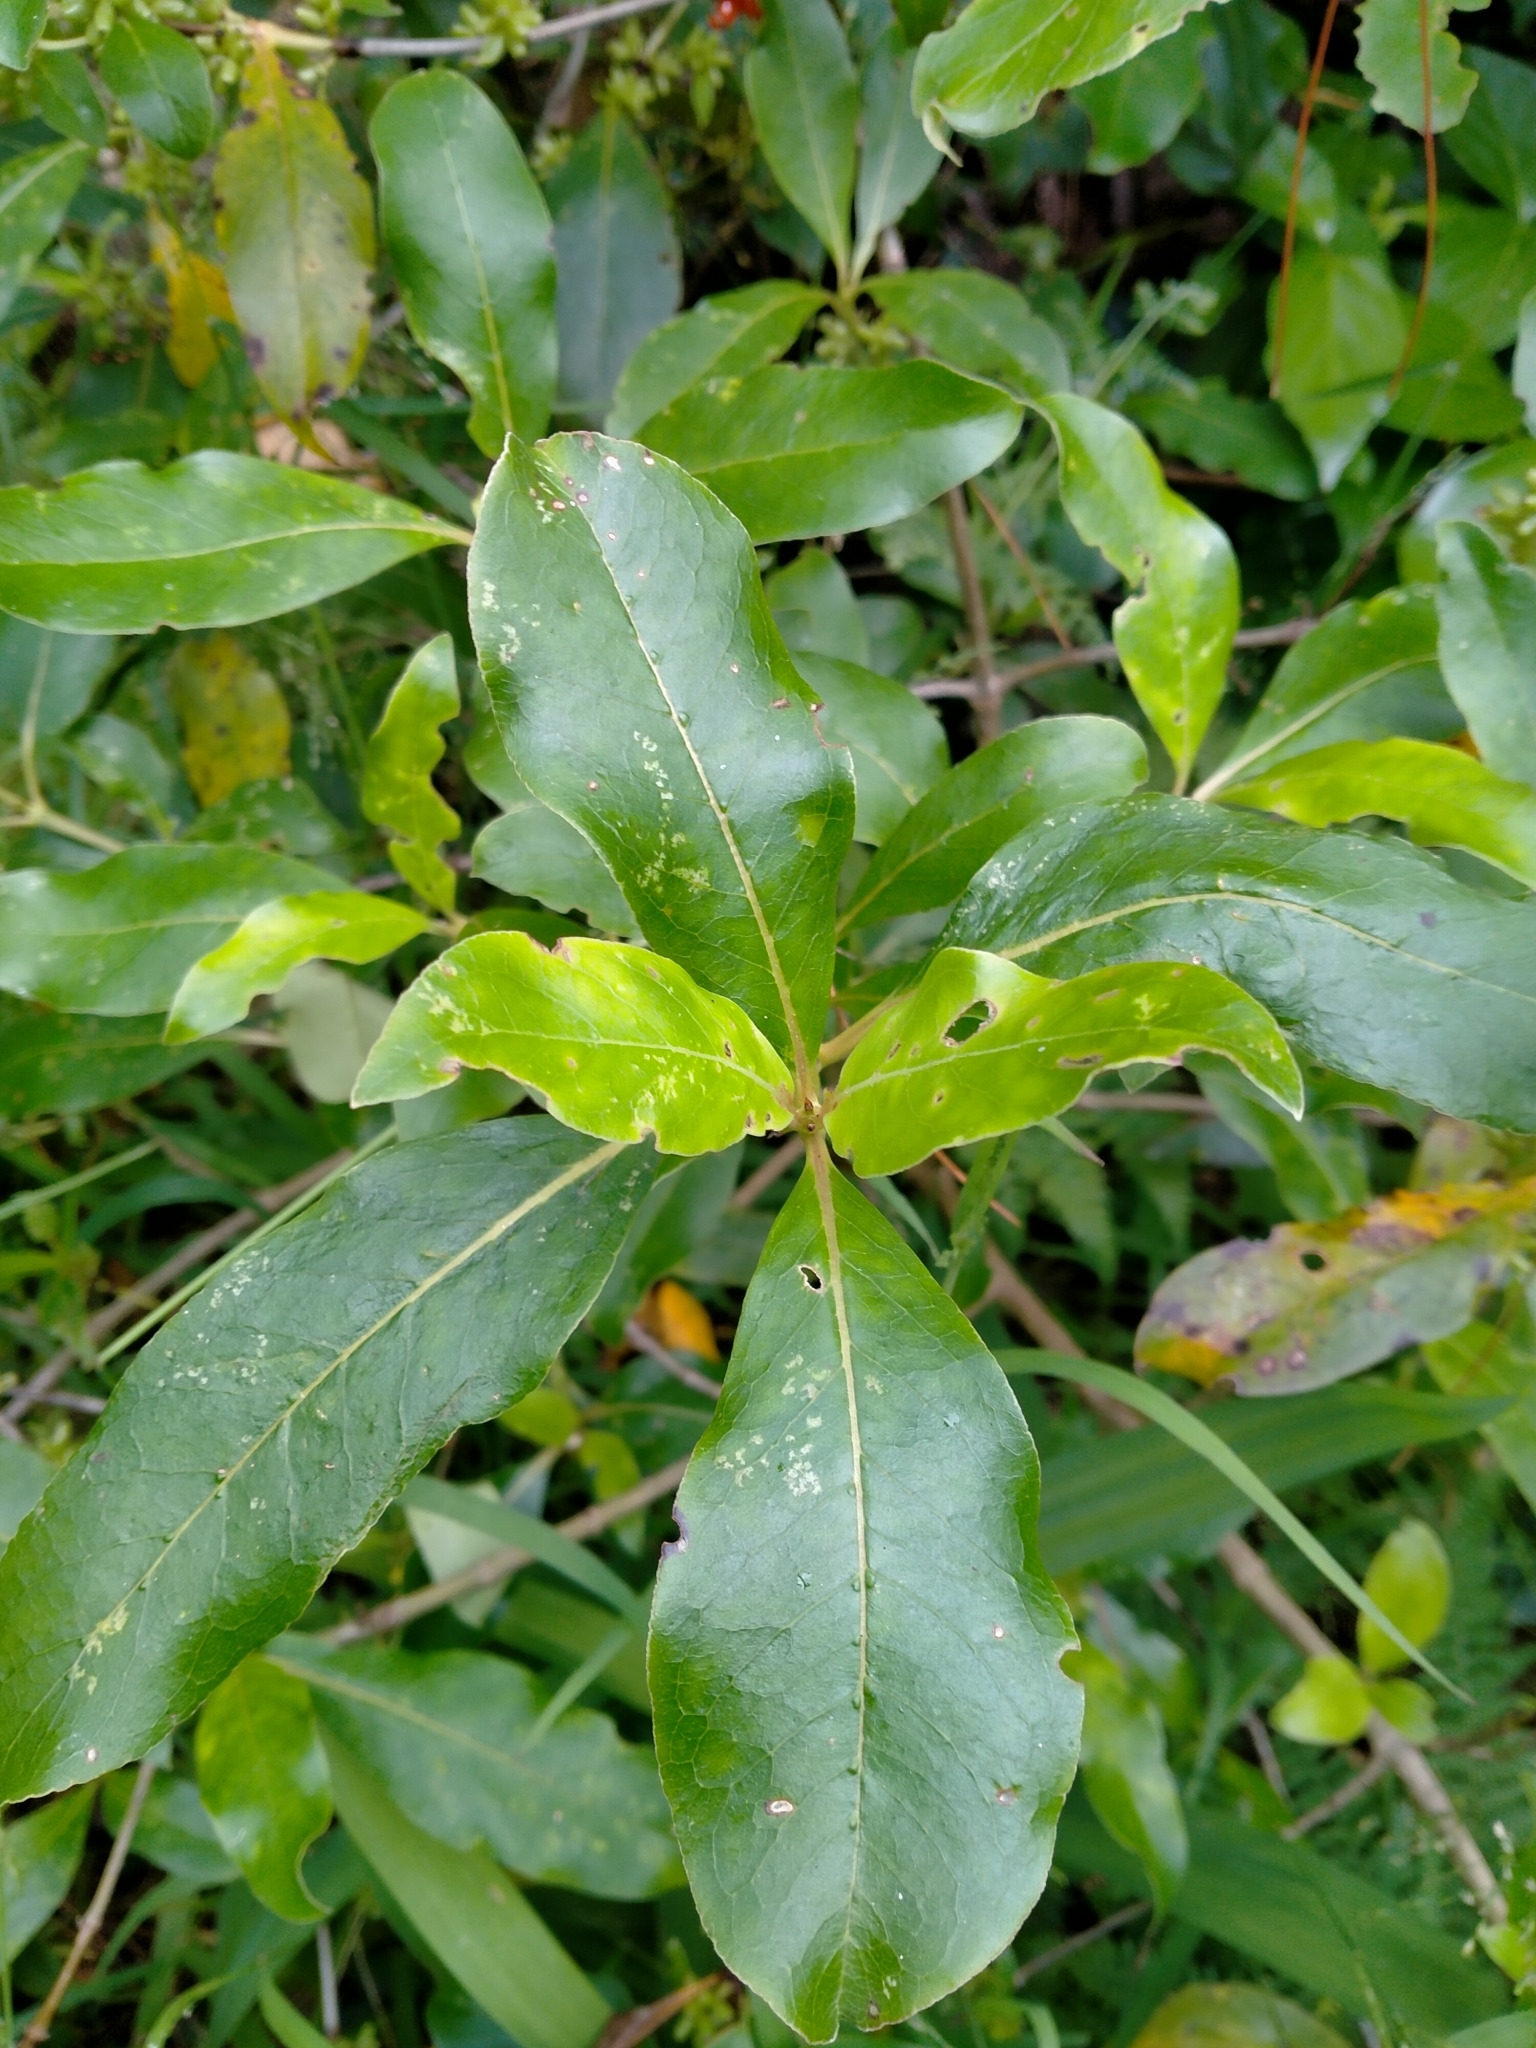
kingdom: Plantae
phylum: Tracheophyta
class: Magnoliopsida
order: Gentianales
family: Rubiaceae
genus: Coprosma
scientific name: Coprosma robusta
